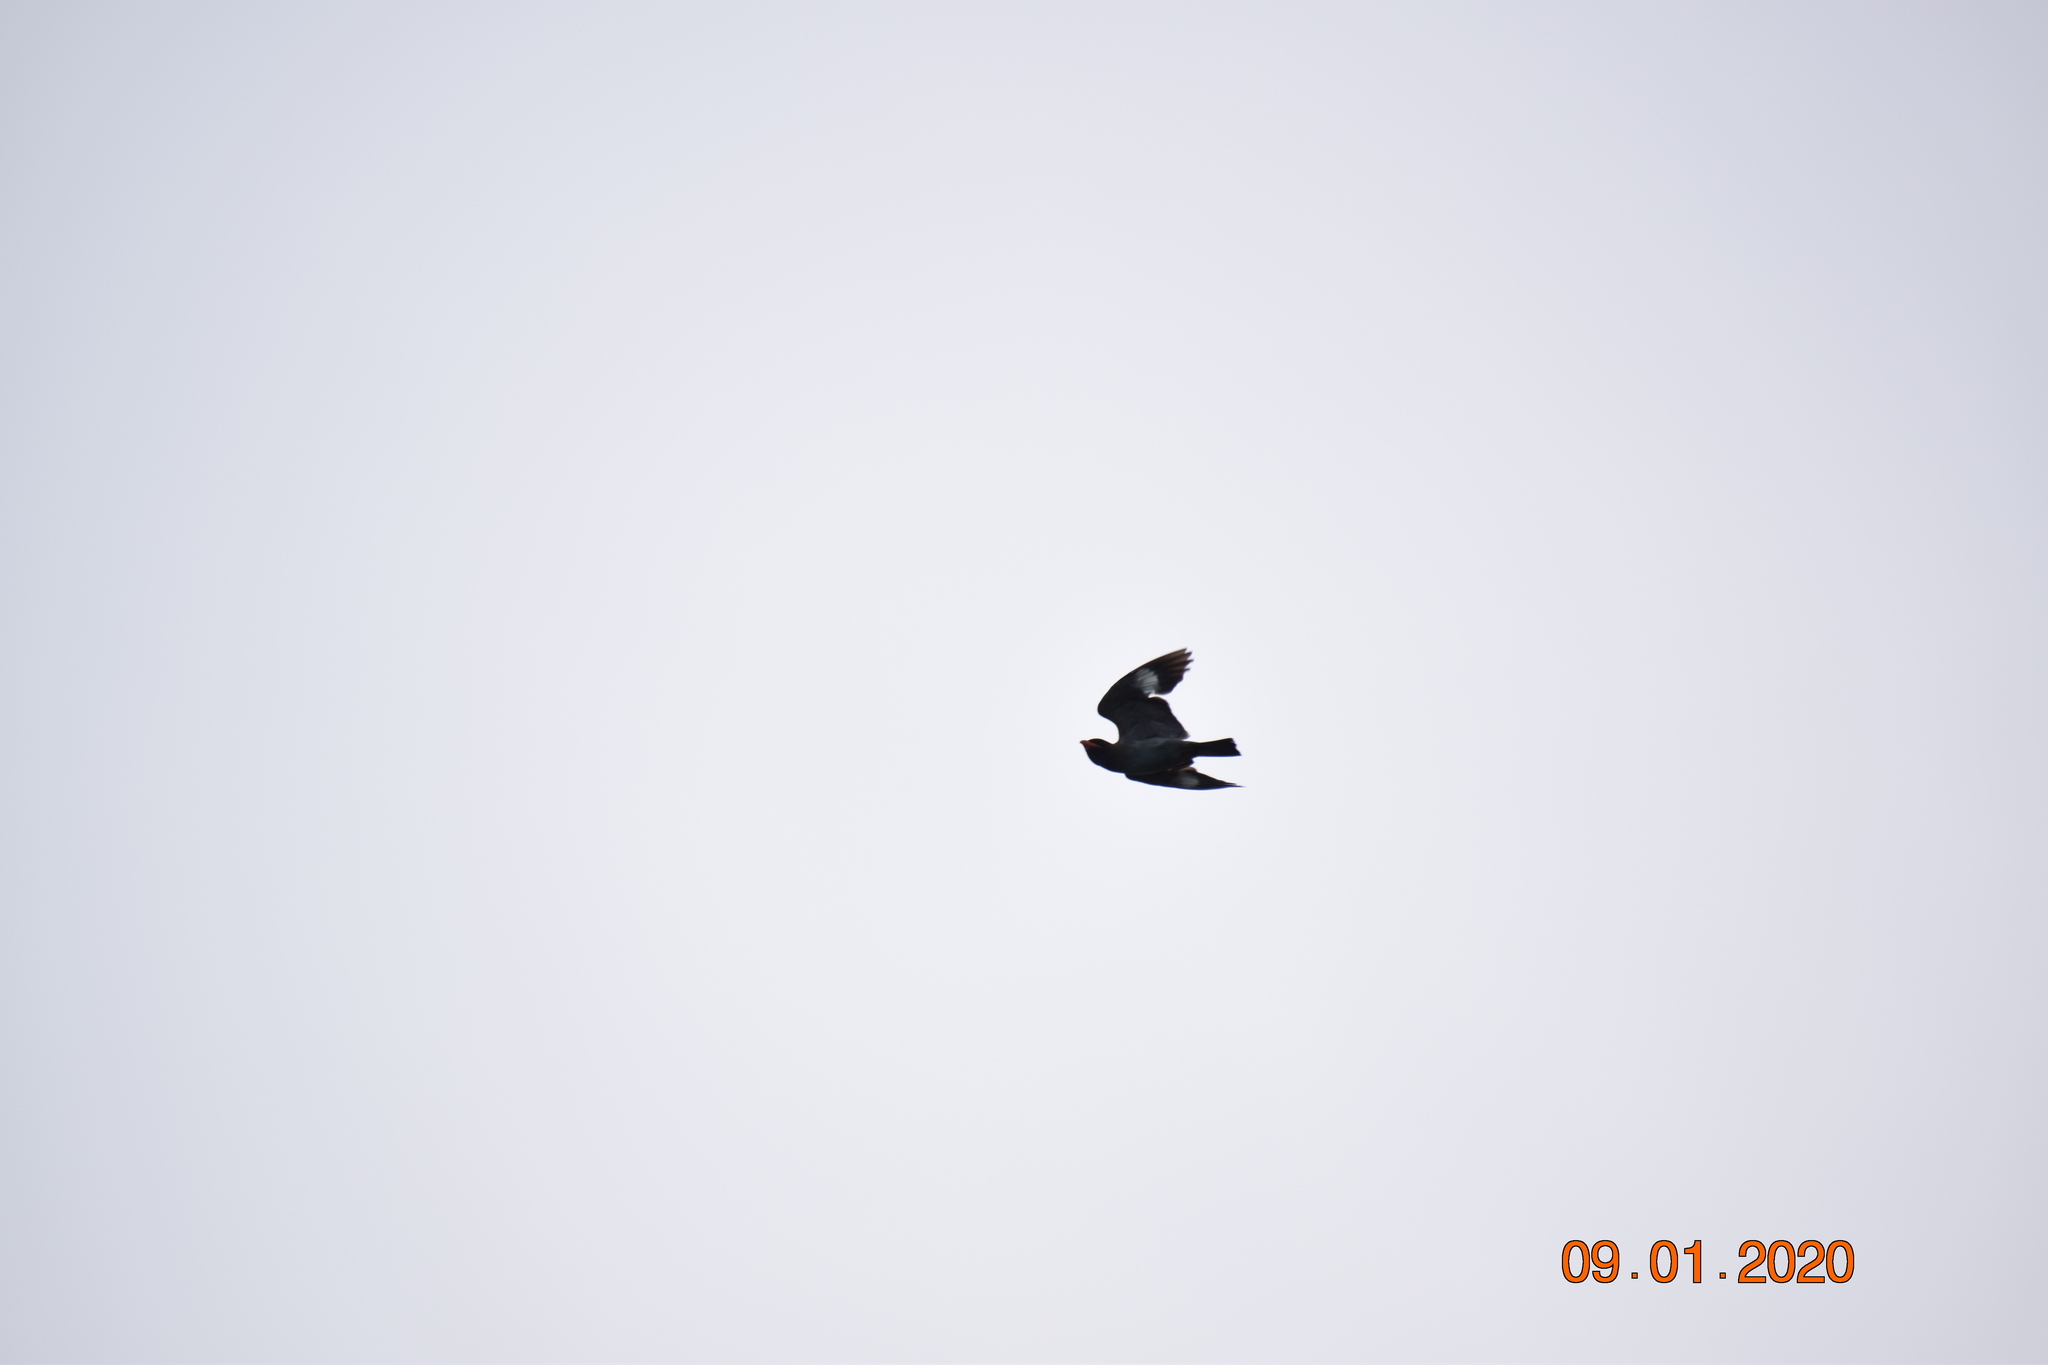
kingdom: Animalia
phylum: Chordata
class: Aves
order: Coraciiformes
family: Coraciidae
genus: Eurystomus
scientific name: Eurystomus orientalis
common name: Oriental dollarbird
